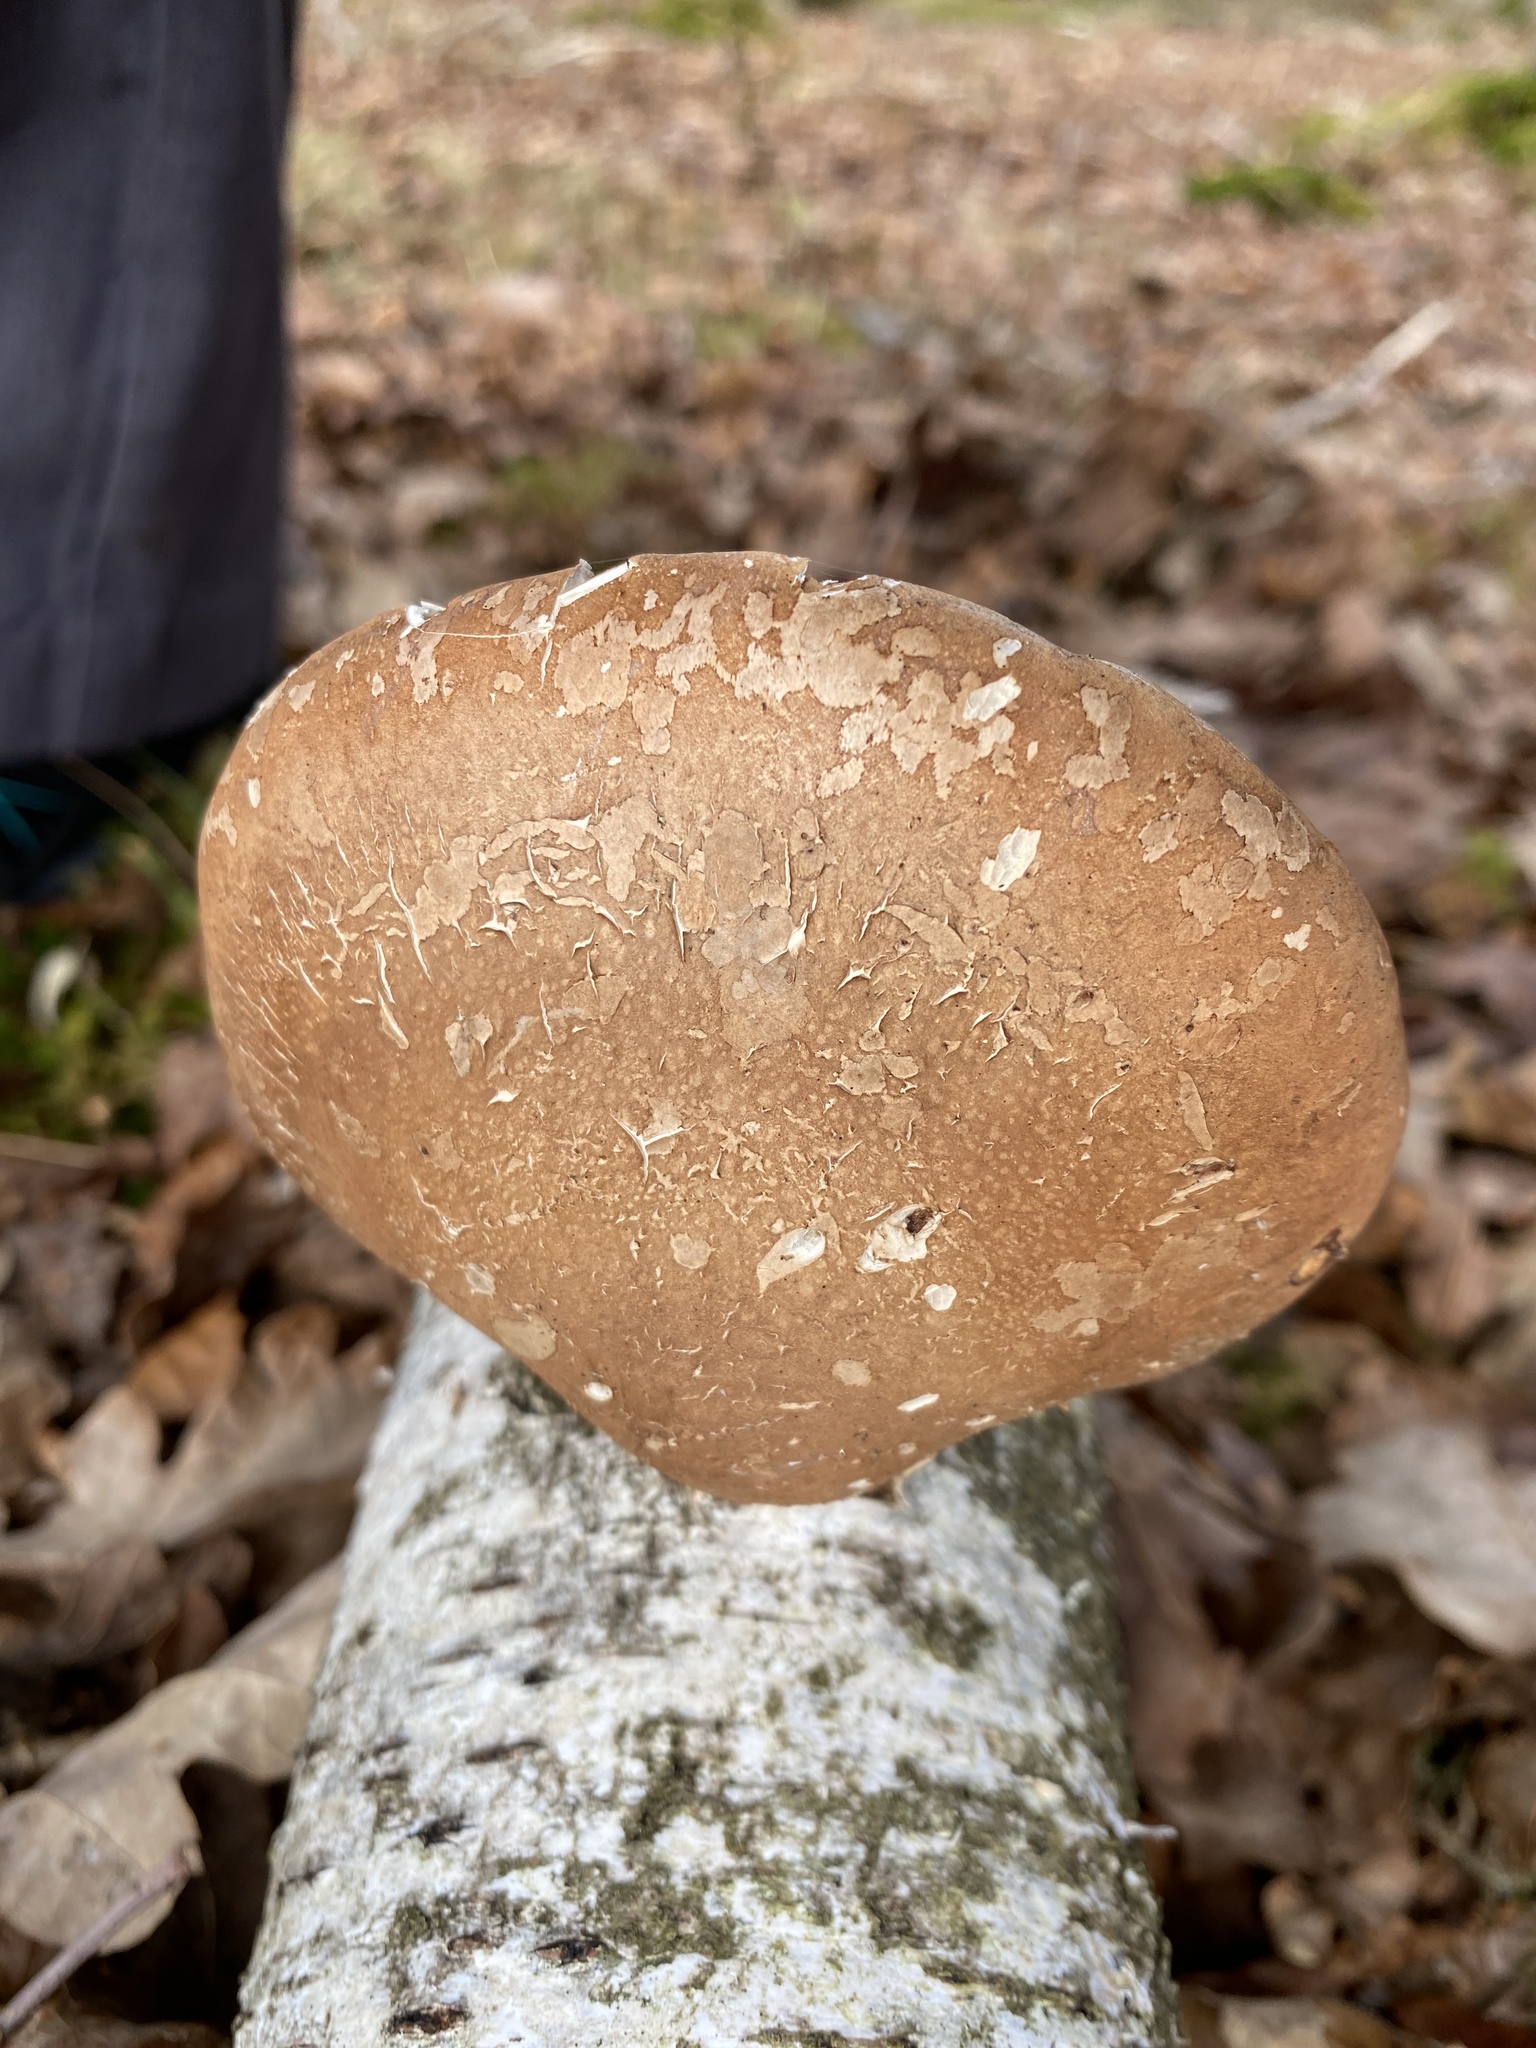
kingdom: Fungi
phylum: Basidiomycota
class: Agaricomycetes
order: Polyporales
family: Fomitopsidaceae
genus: Fomitopsis
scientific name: Fomitopsis betulina
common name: Birch polypore
